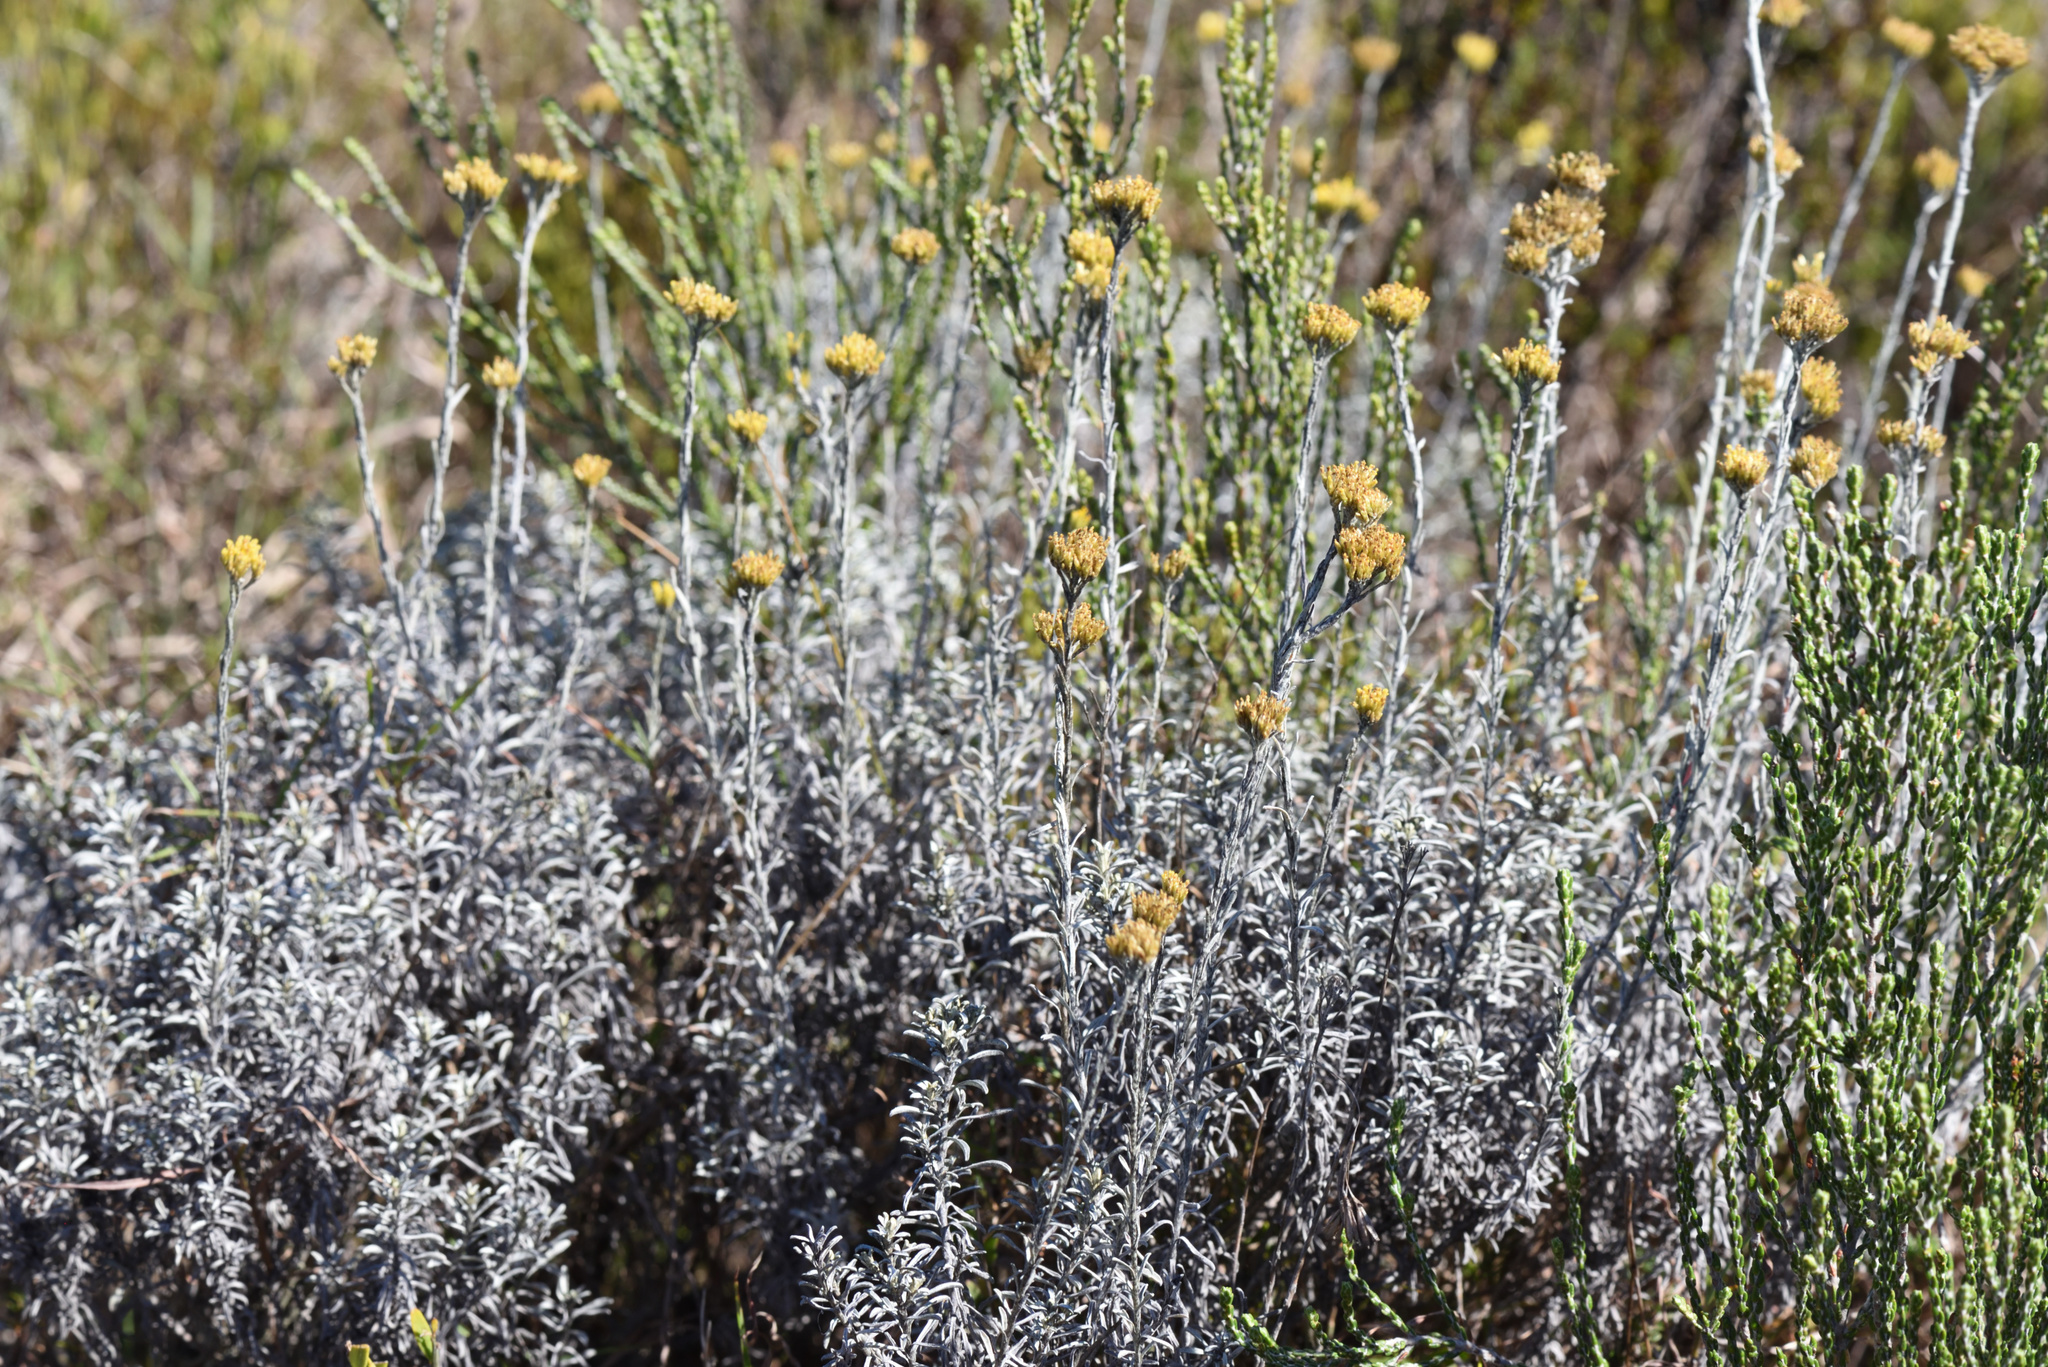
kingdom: Plantae
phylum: Tracheophyta
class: Magnoliopsida
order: Asterales
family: Asteraceae
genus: Helichrysum
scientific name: Helichrysum cymosum
